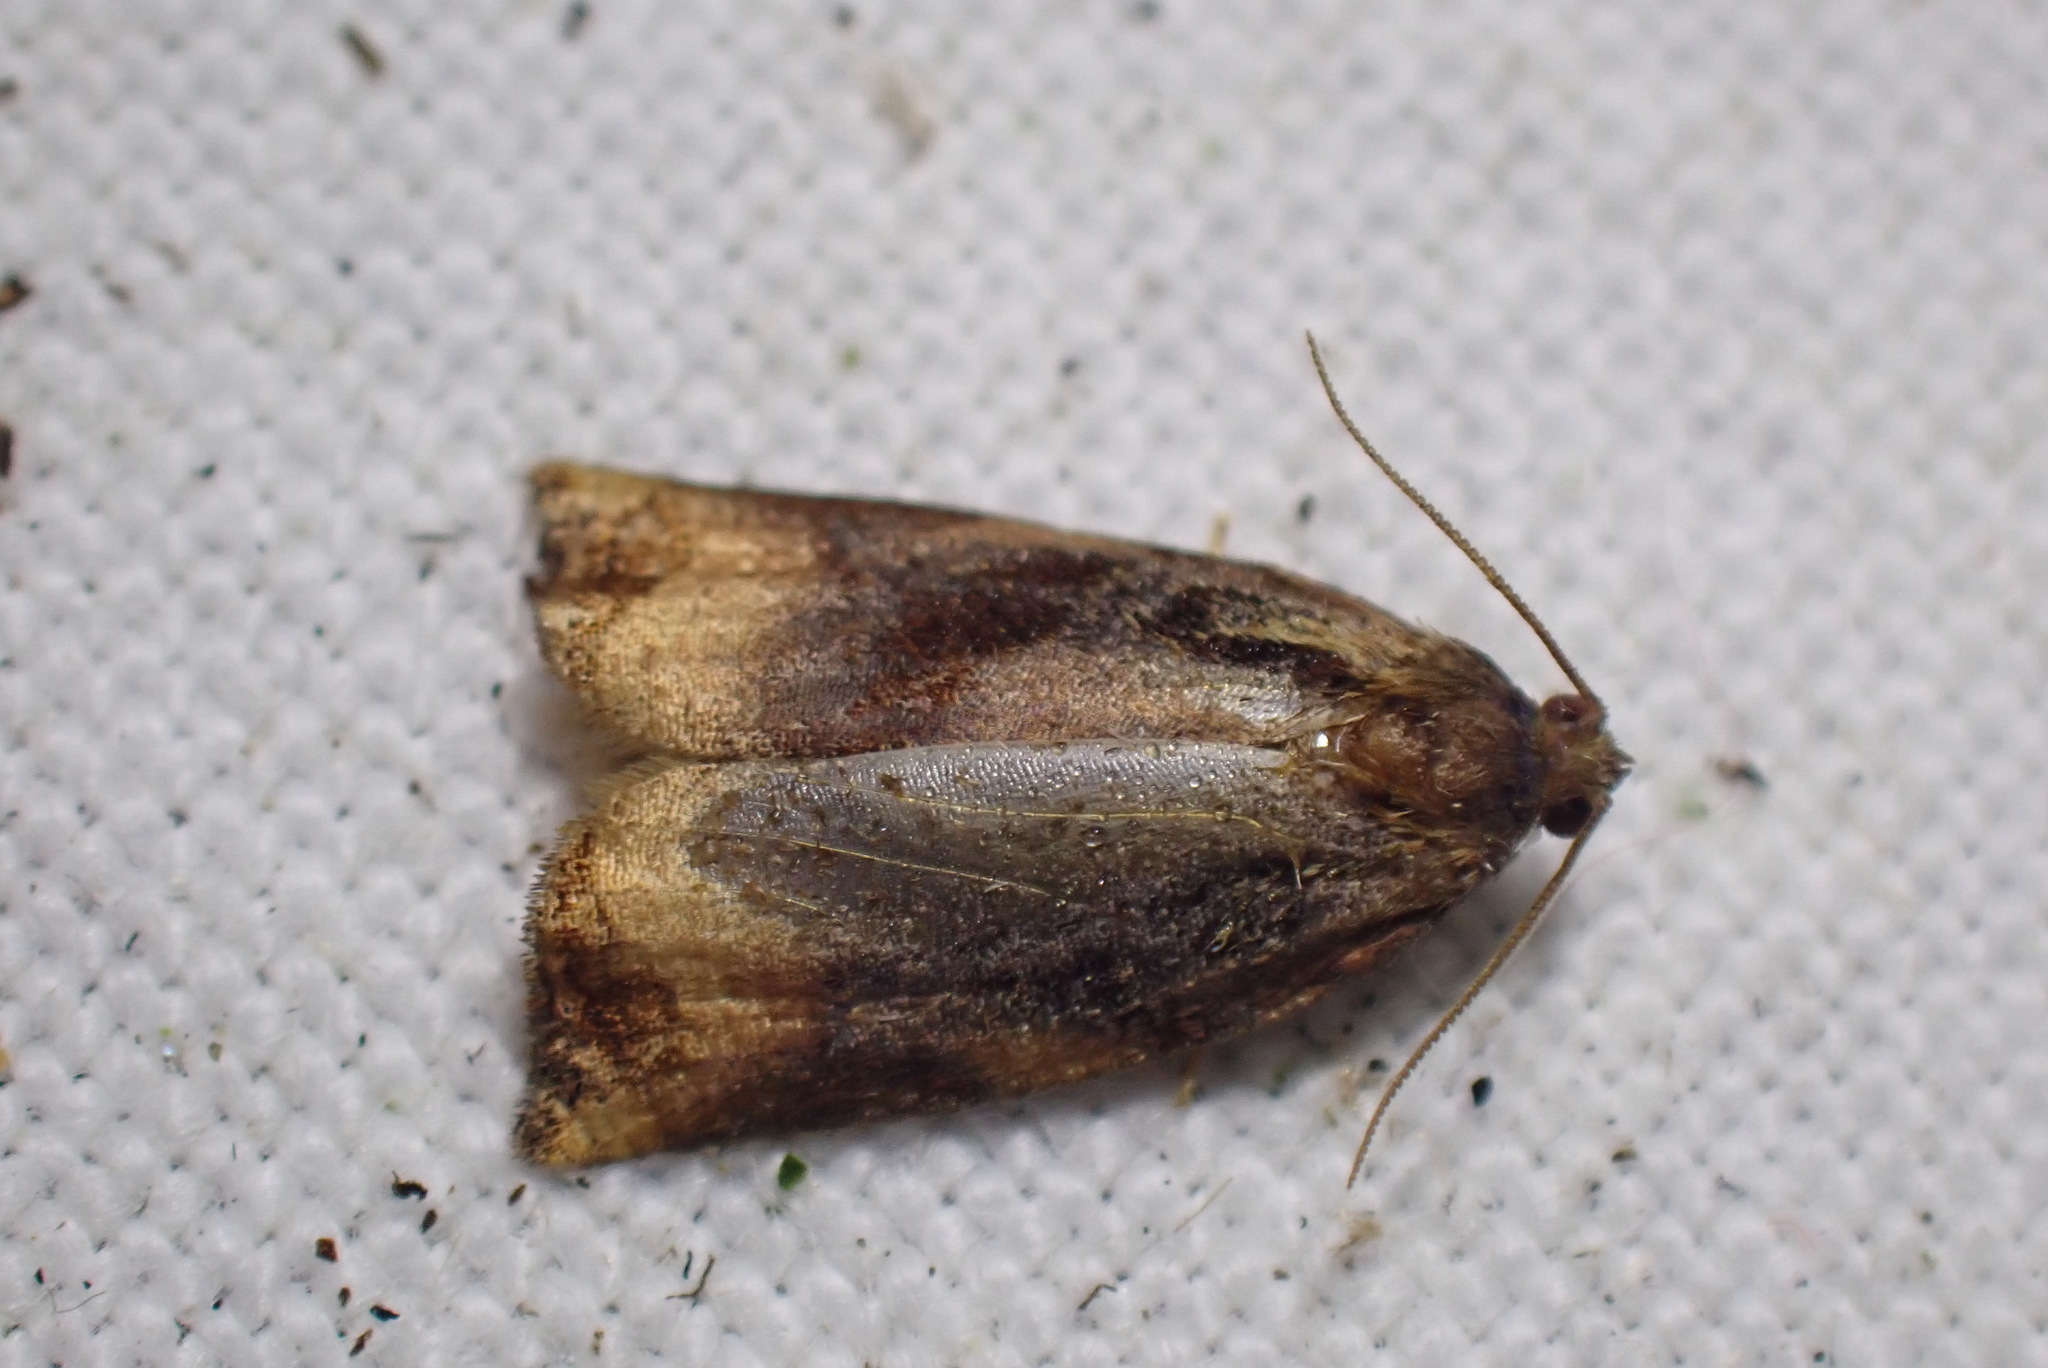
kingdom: Animalia
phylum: Arthropoda
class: Insecta
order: Lepidoptera
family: Tortricidae
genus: Archips
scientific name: Archips podana
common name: Large fruit-tree tortrix
